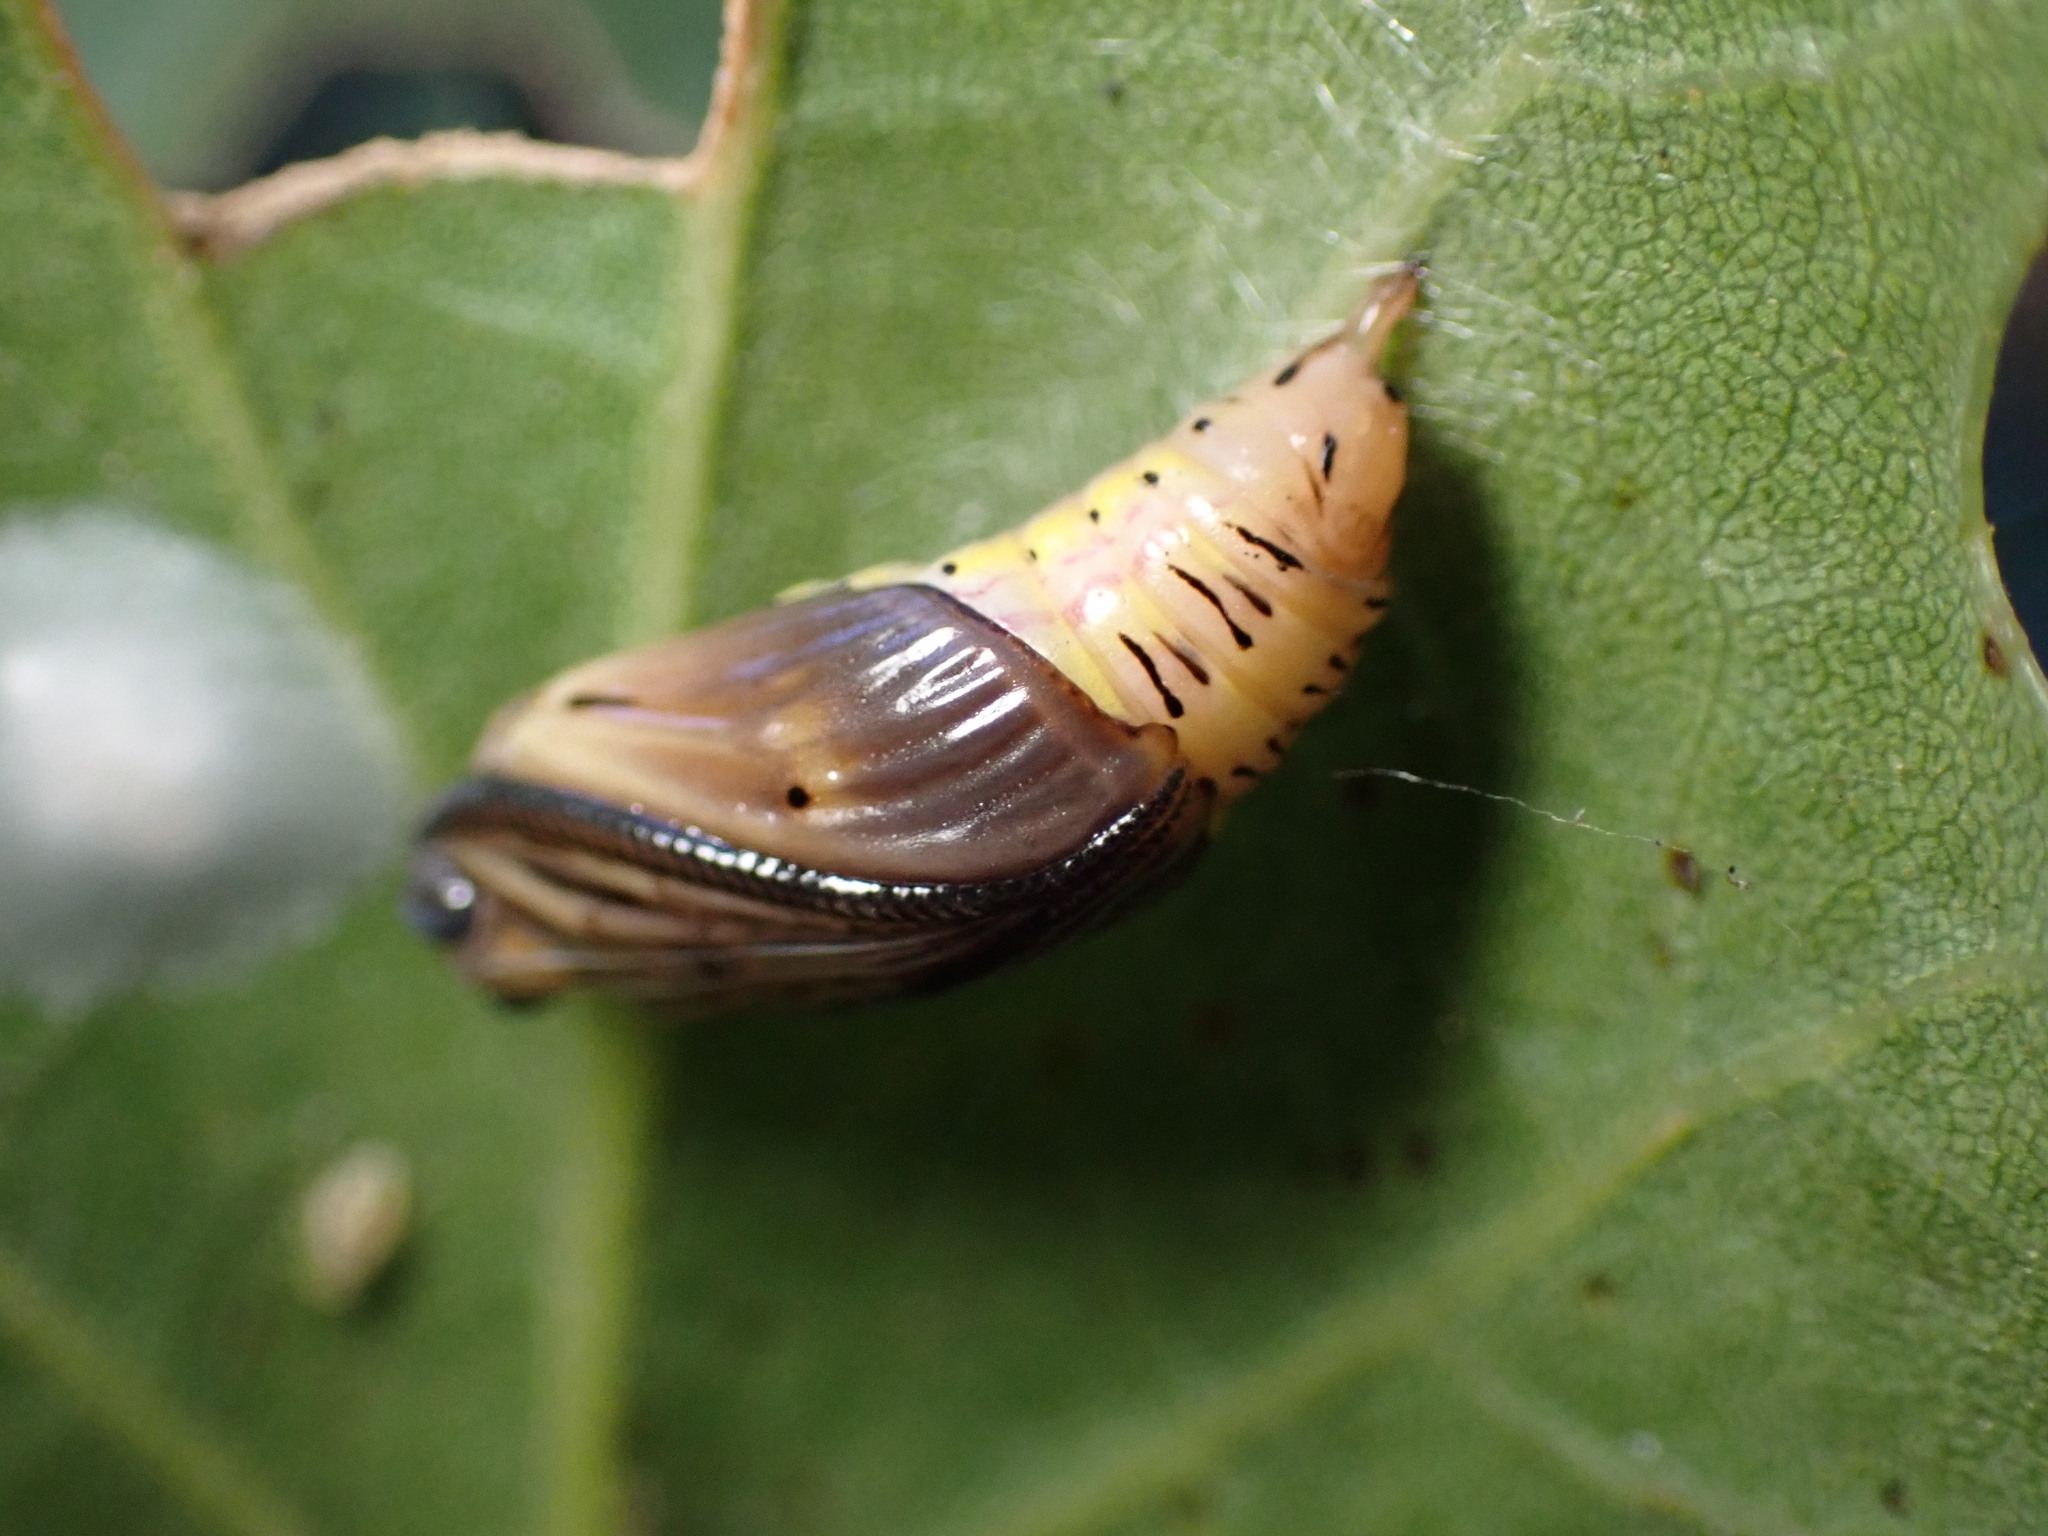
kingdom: Animalia
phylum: Arthropoda
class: Insecta
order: Lepidoptera
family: Notodontidae
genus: Phryganidia
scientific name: Phryganidia californica
